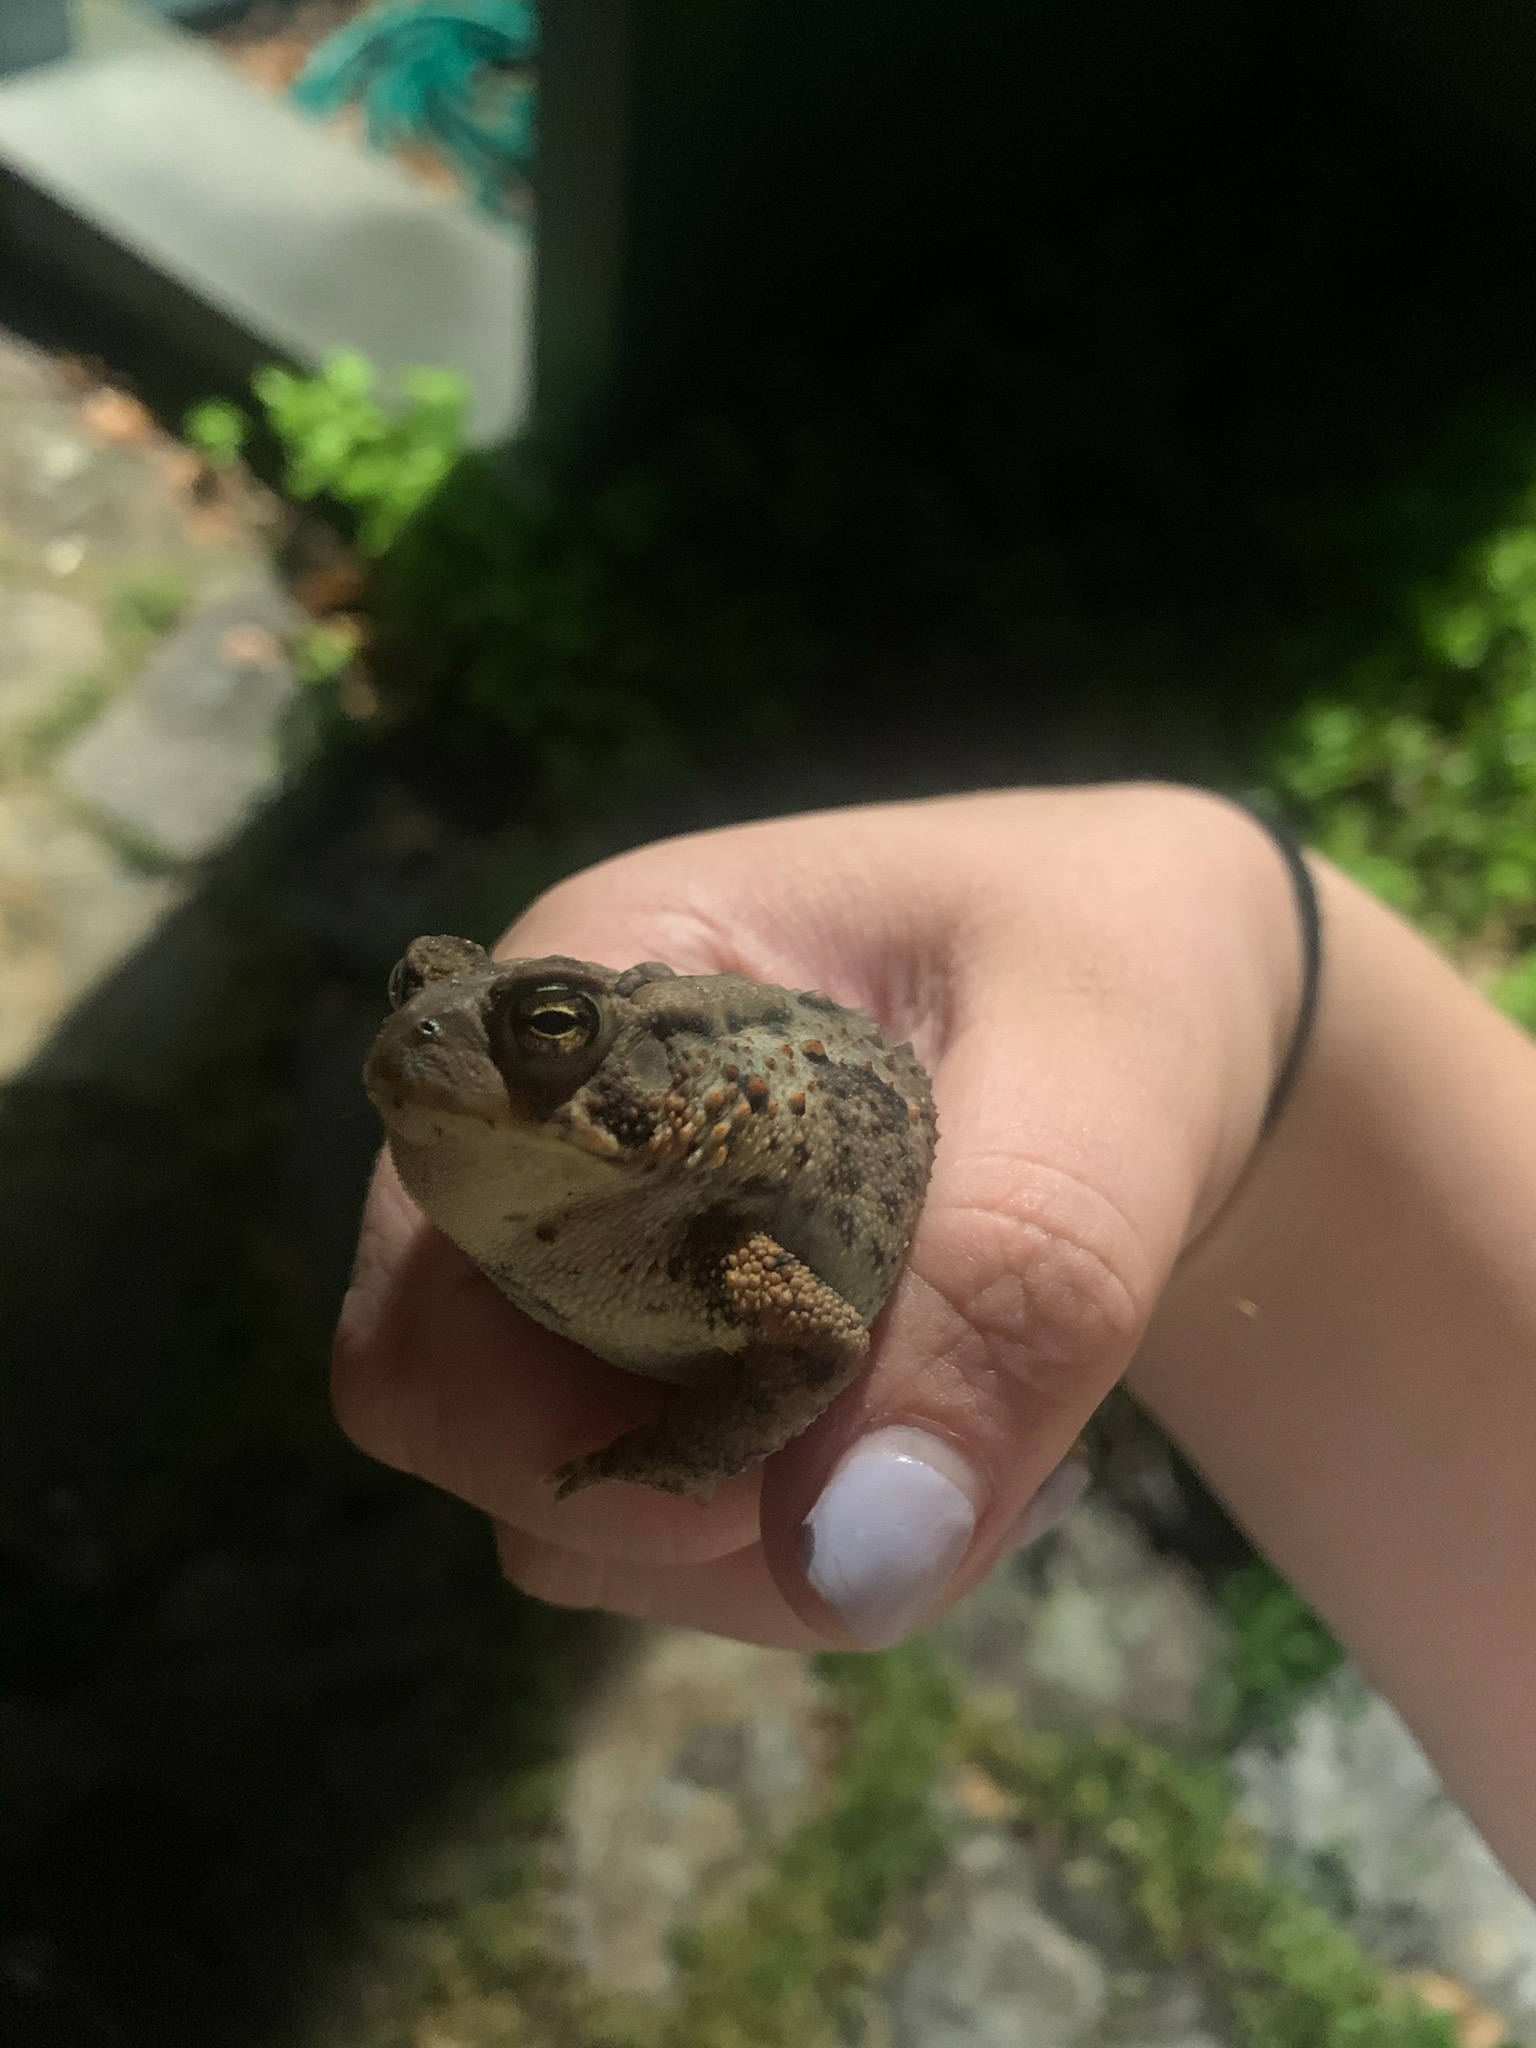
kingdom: Animalia
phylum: Chordata
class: Amphibia
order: Anura
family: Bufonidae
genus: Anaxyrus
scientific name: Anaxyrus
